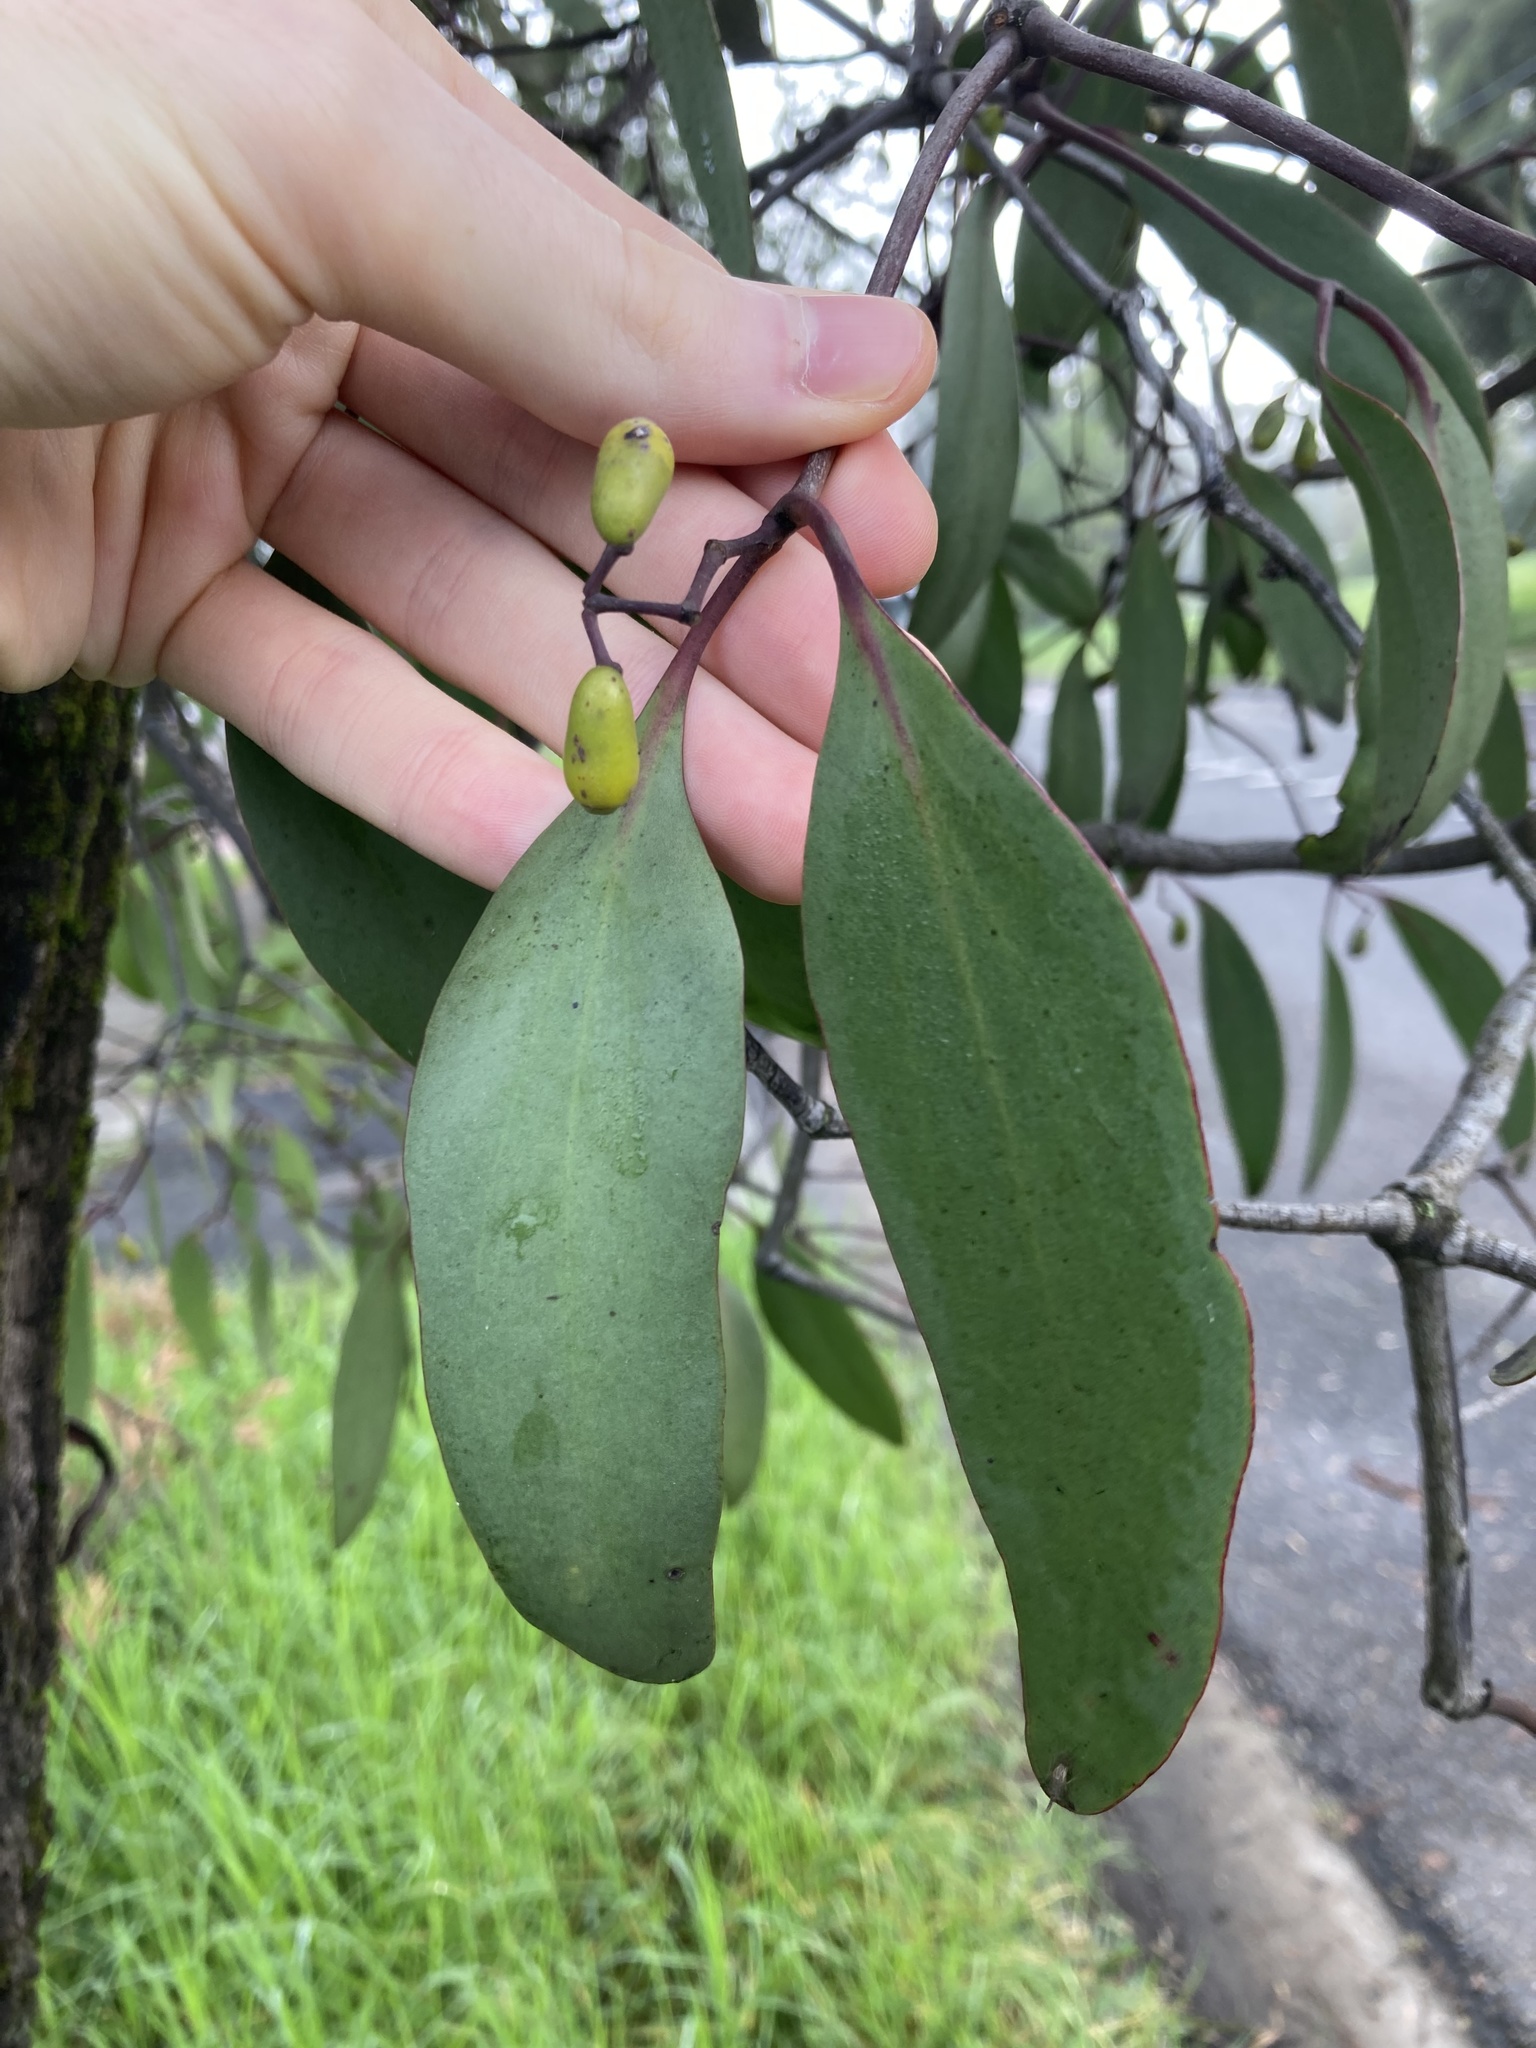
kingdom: Plantae
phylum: Tracheophyta
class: Magnoliopsida
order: Santalales
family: Loranthaceae
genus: Muellerina
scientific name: Muellerina eucalyptoides
